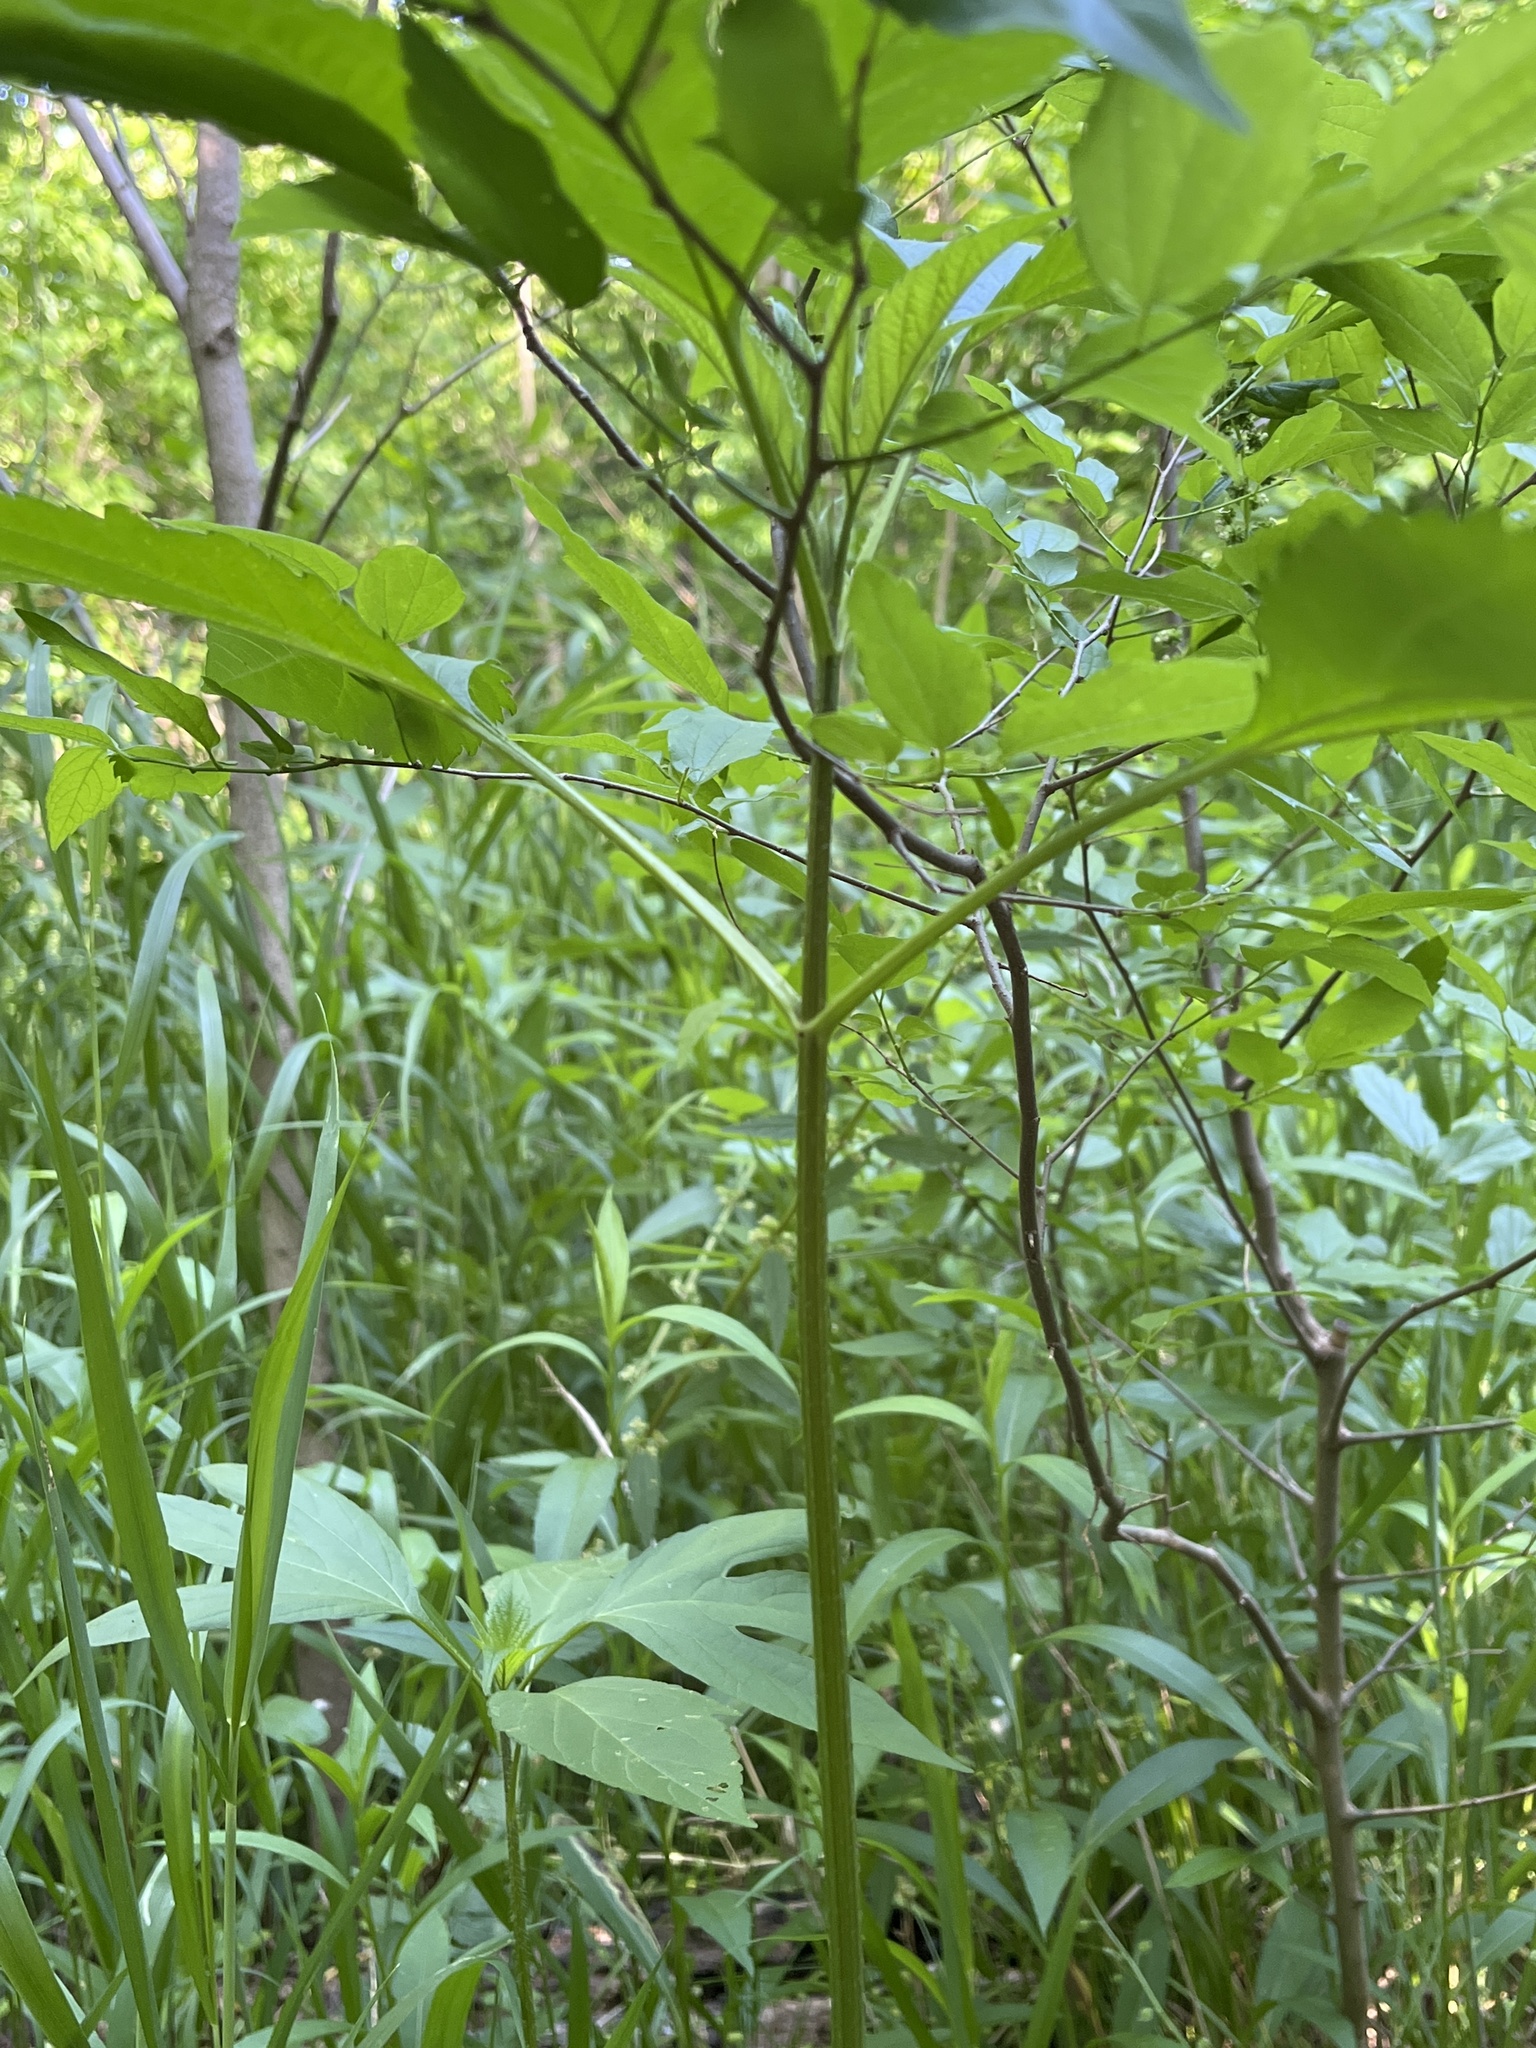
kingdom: Plantae
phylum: Tracheophyta
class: Magnoliopsida
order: Asterales
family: Asteraceae
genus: Ambrosia
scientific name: Ambrosia trifida
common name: Giant ragweed
